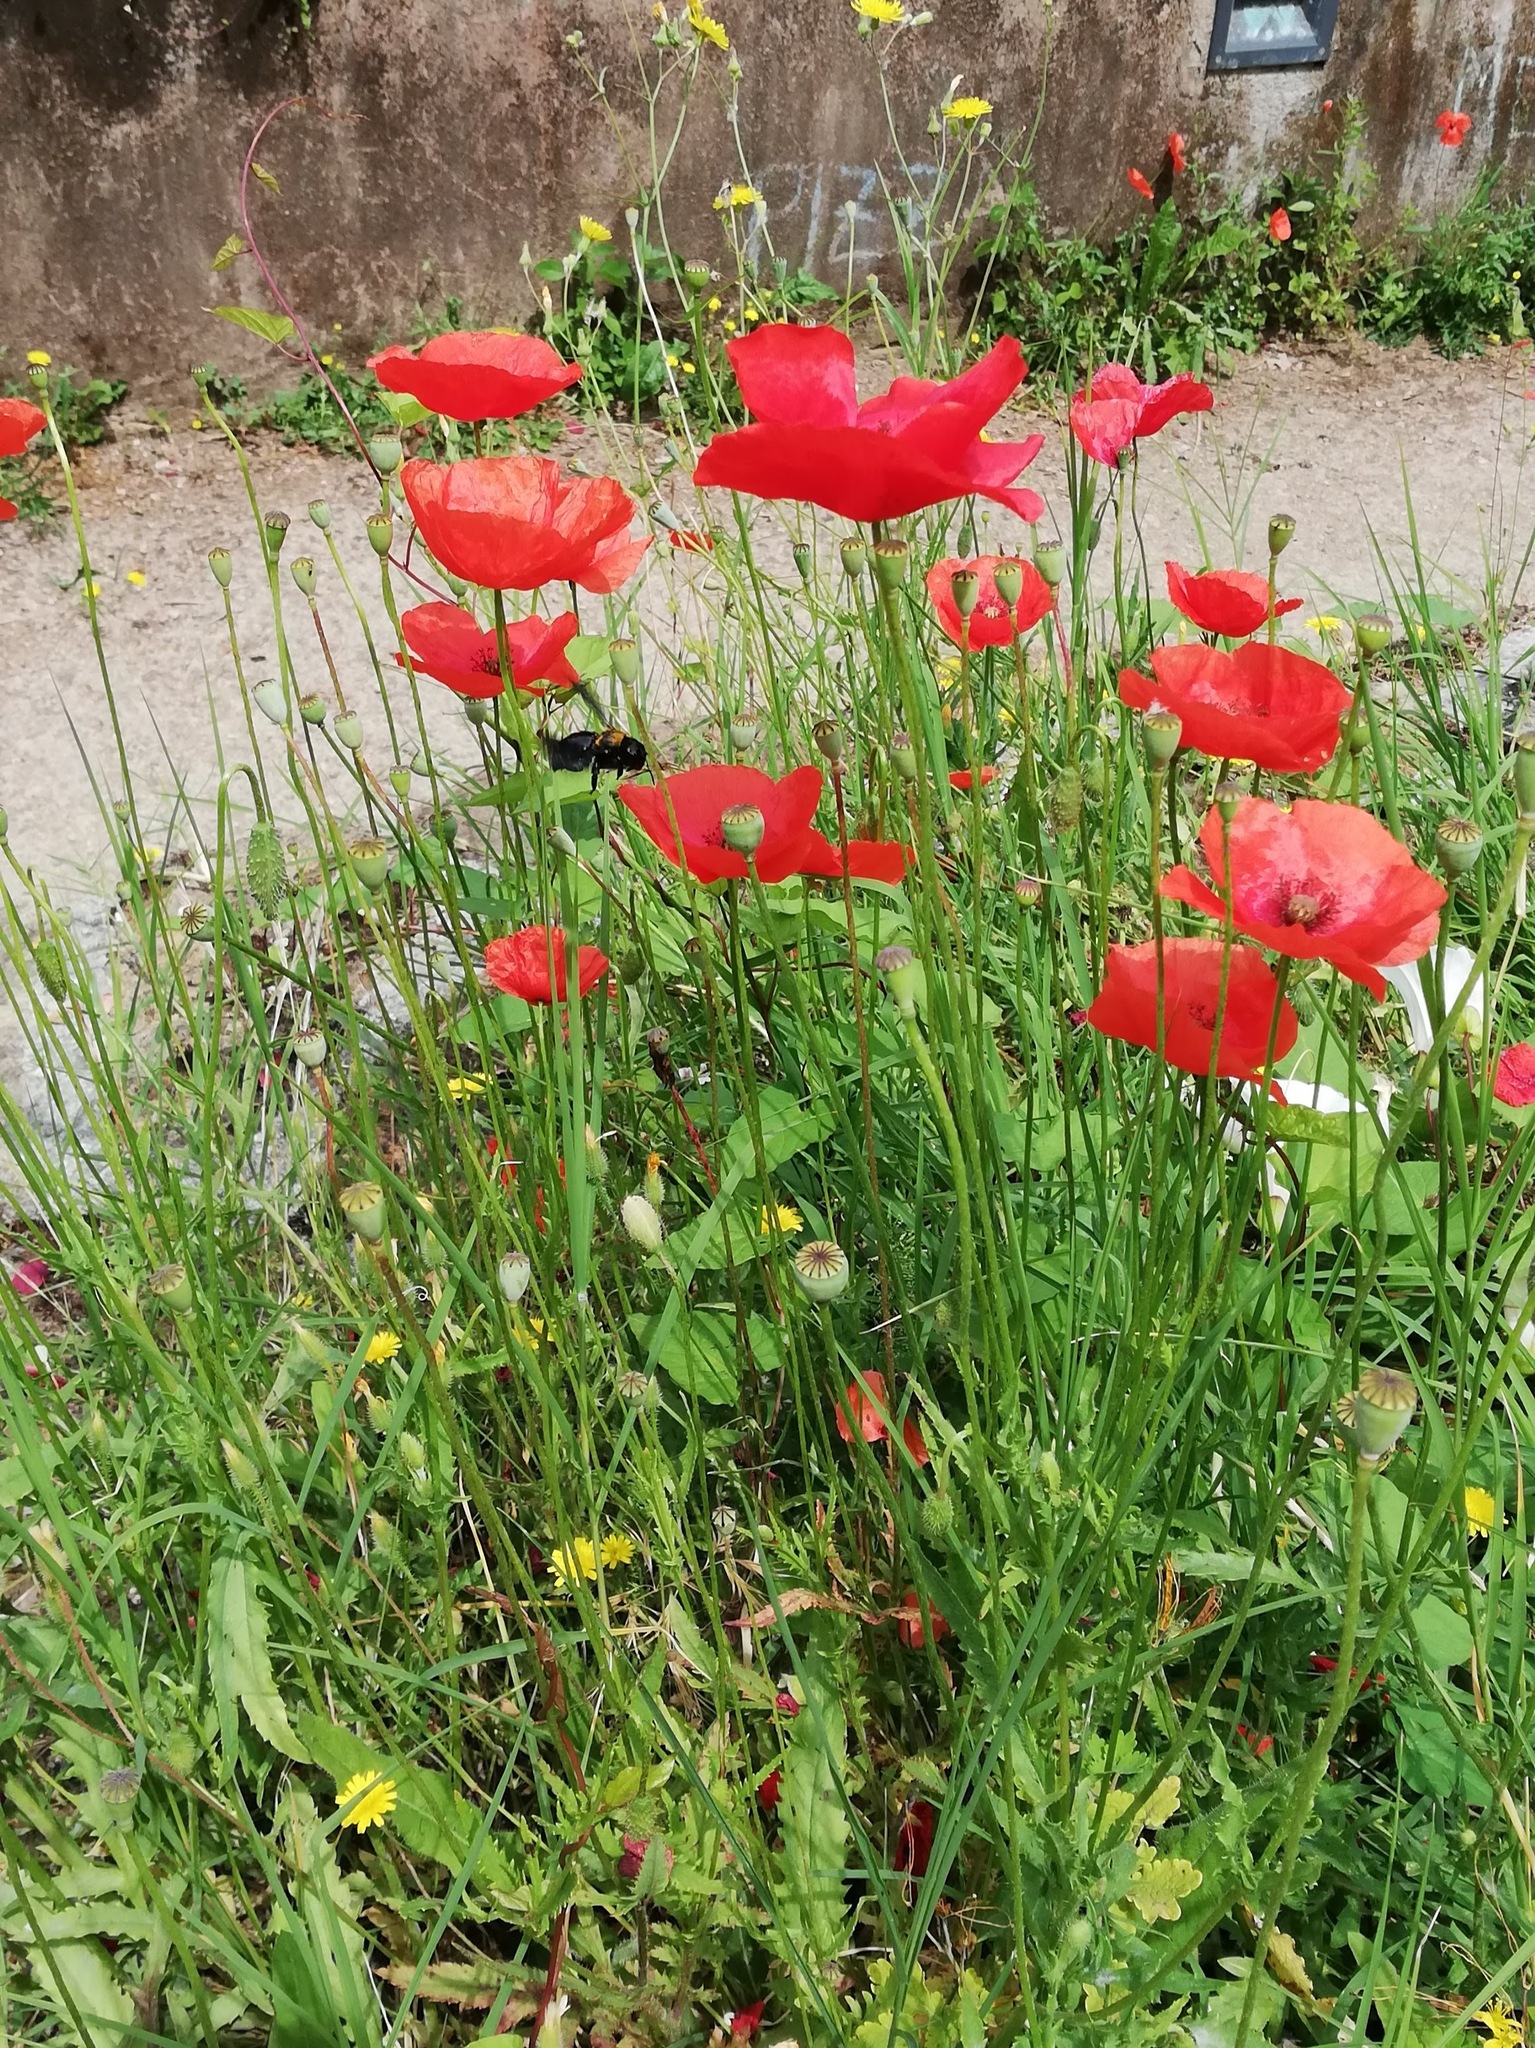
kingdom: Plantae
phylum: Tracheophyta
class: Magnoliopsida
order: Ranunculales
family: Papaveraceae
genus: Papaver
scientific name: Papaver rhoeas
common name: Corn poppy
